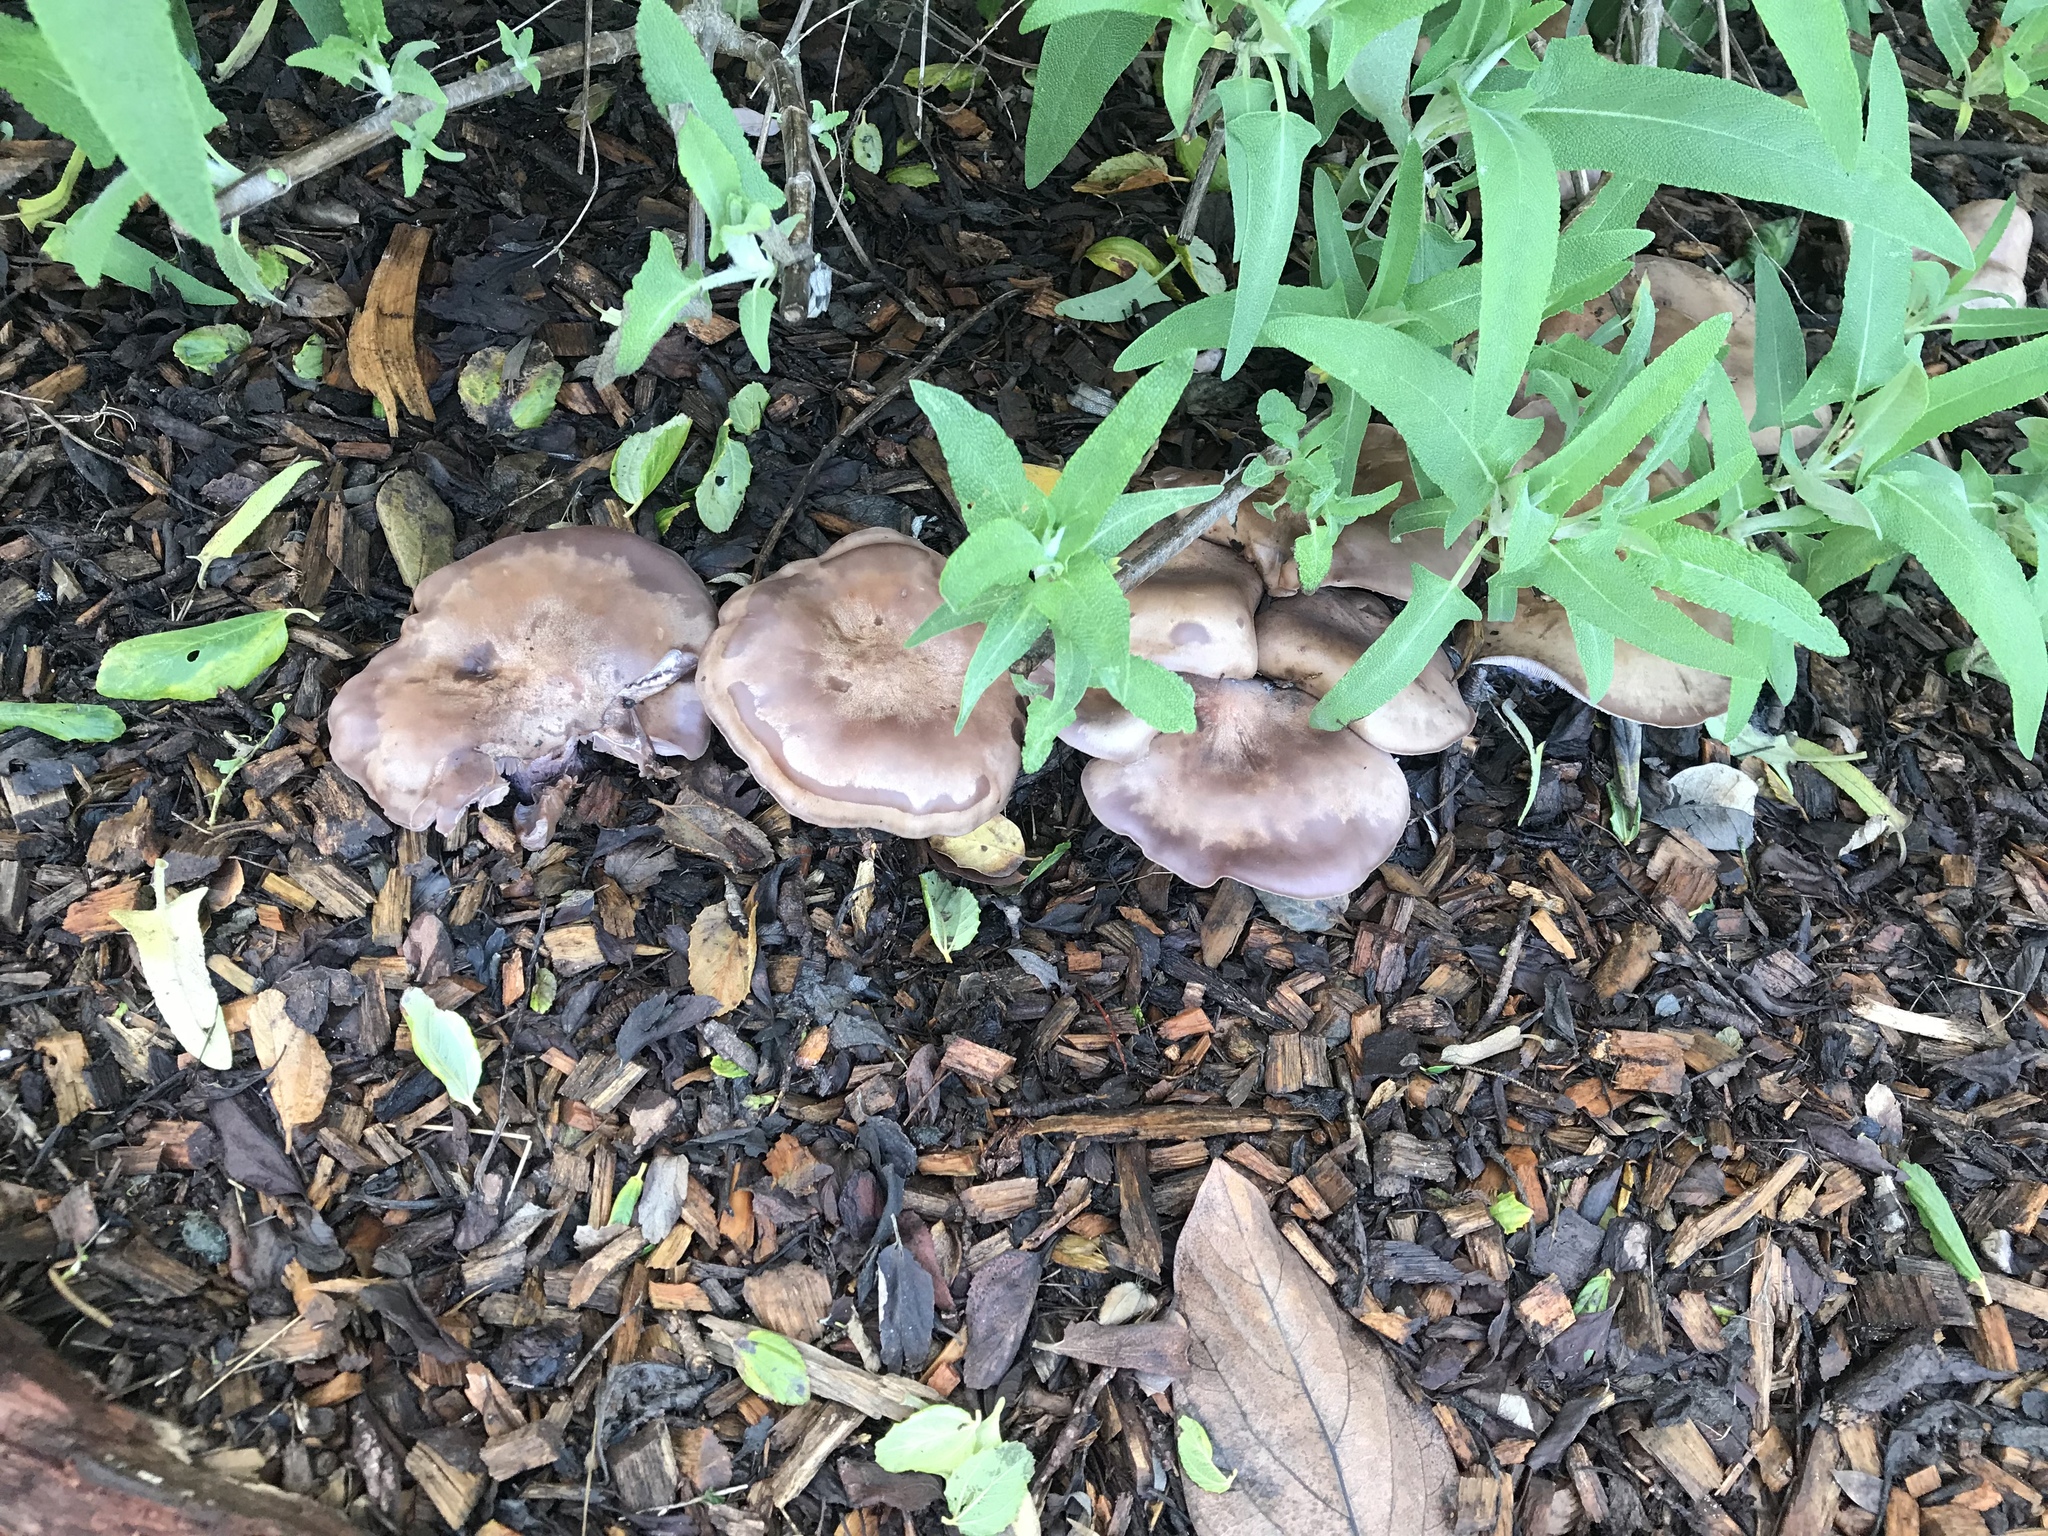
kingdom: Fungi
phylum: Basidiomycota
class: Agaricomycetes
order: Agaricales
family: Tricholomataceae
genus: Collybia
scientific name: Collybia
